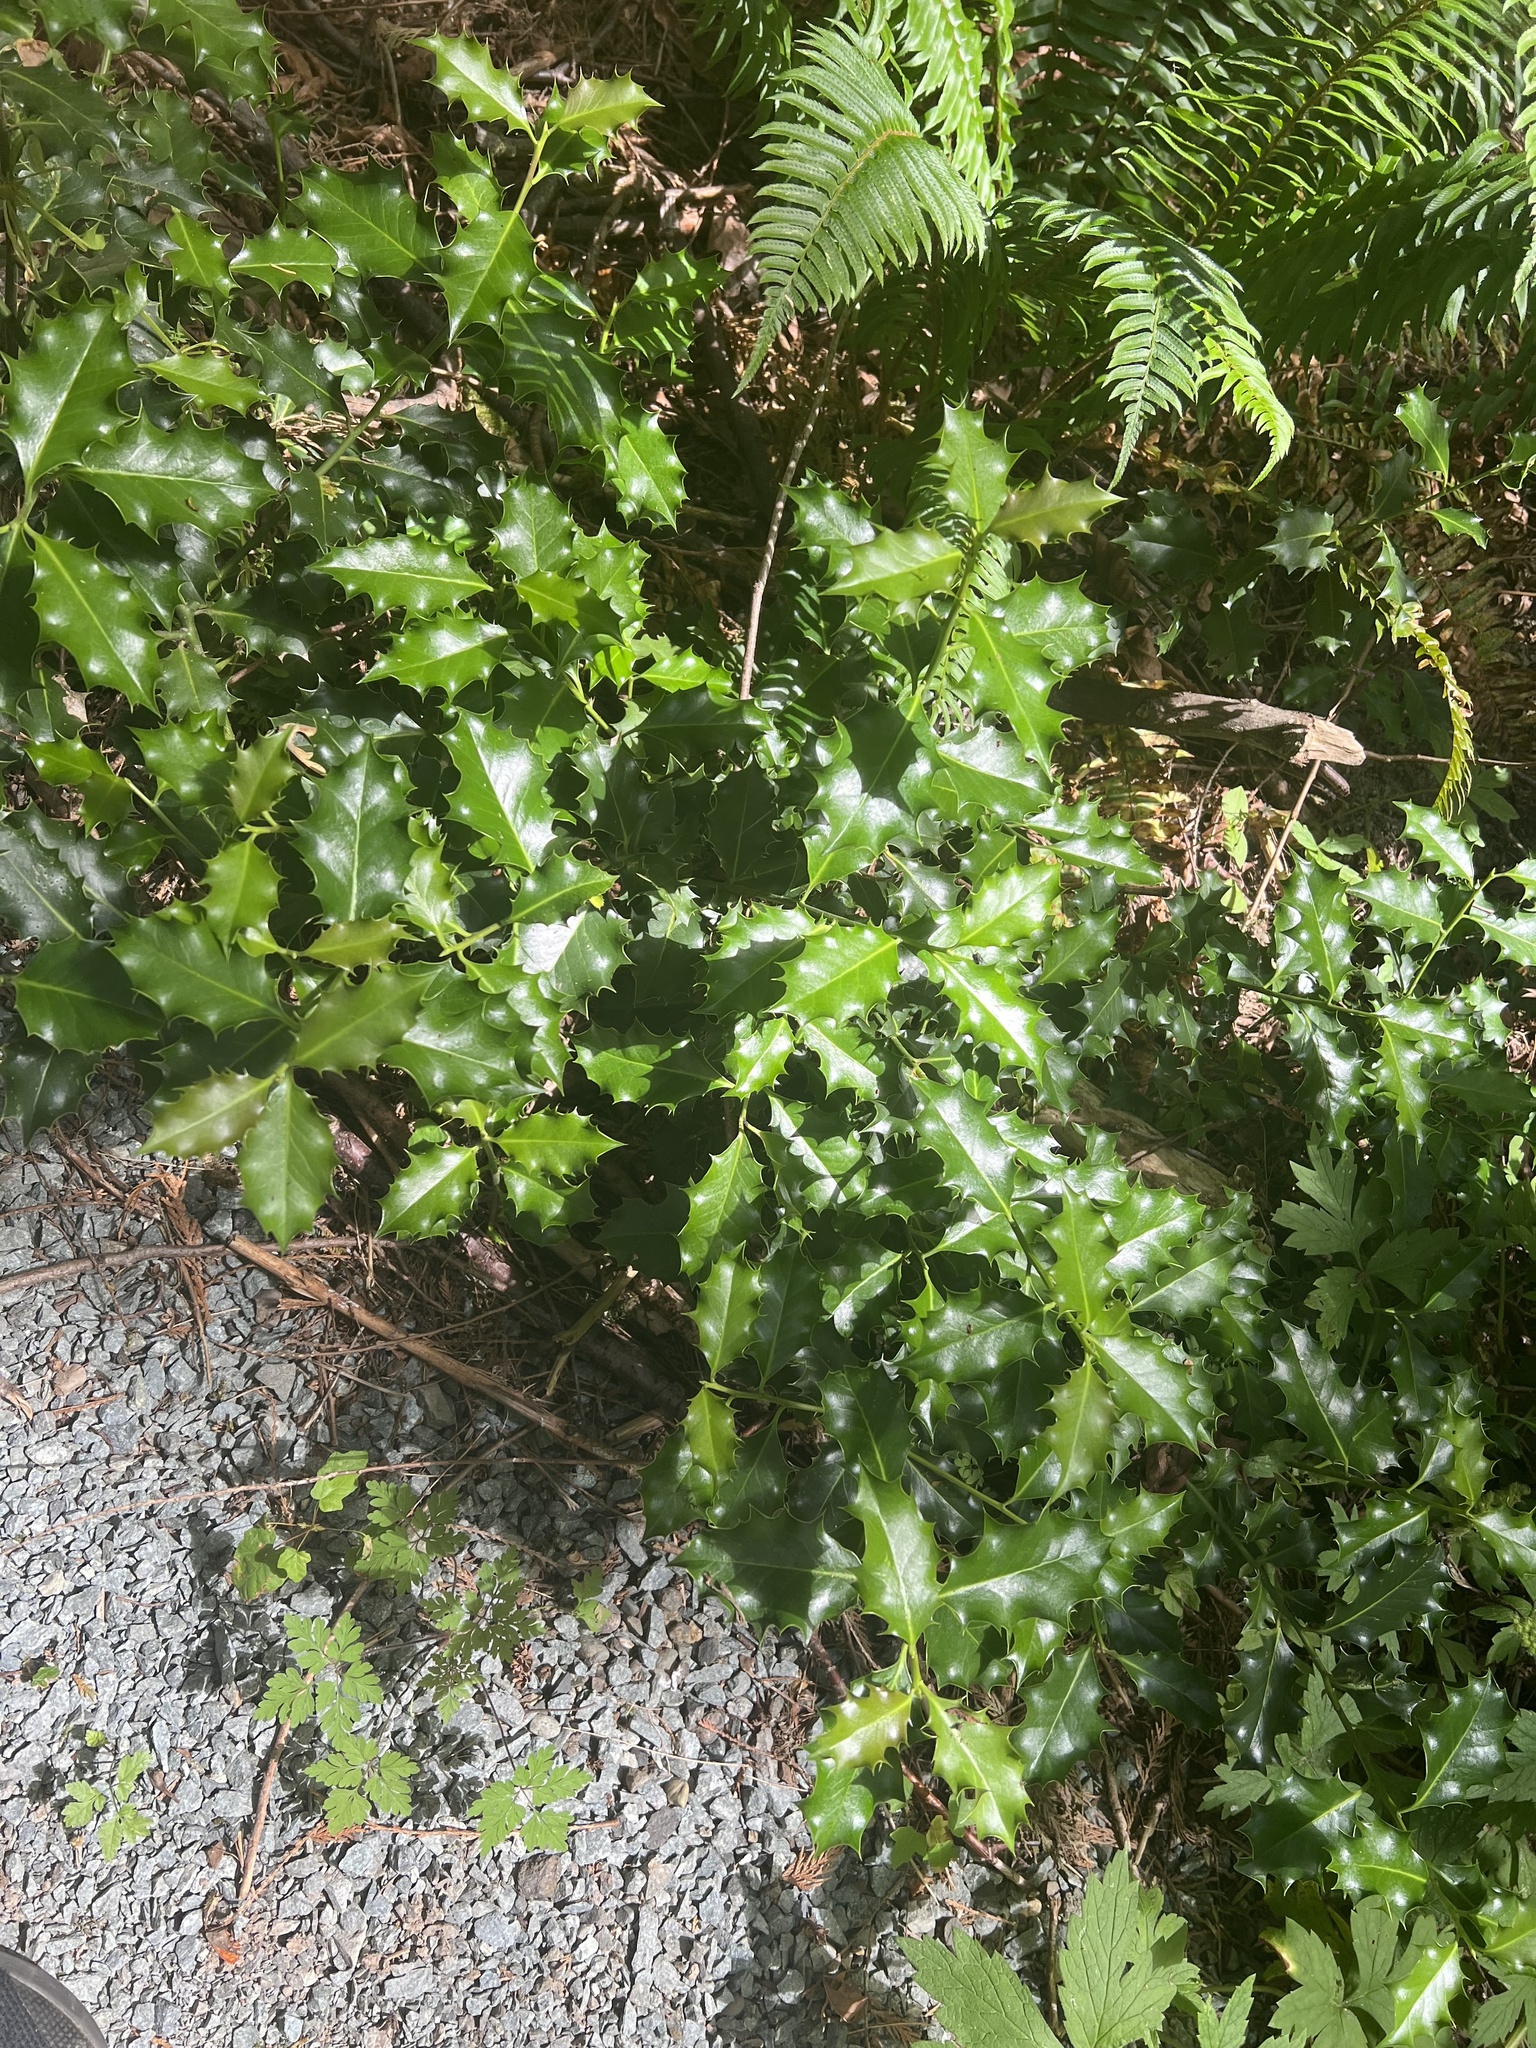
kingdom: Plantae
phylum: Tracheophyta
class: Magnoliopsida
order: Aquifoliales
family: Aquifoliaceae
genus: Ilex
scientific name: Ilex aquifolium
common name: English holly
